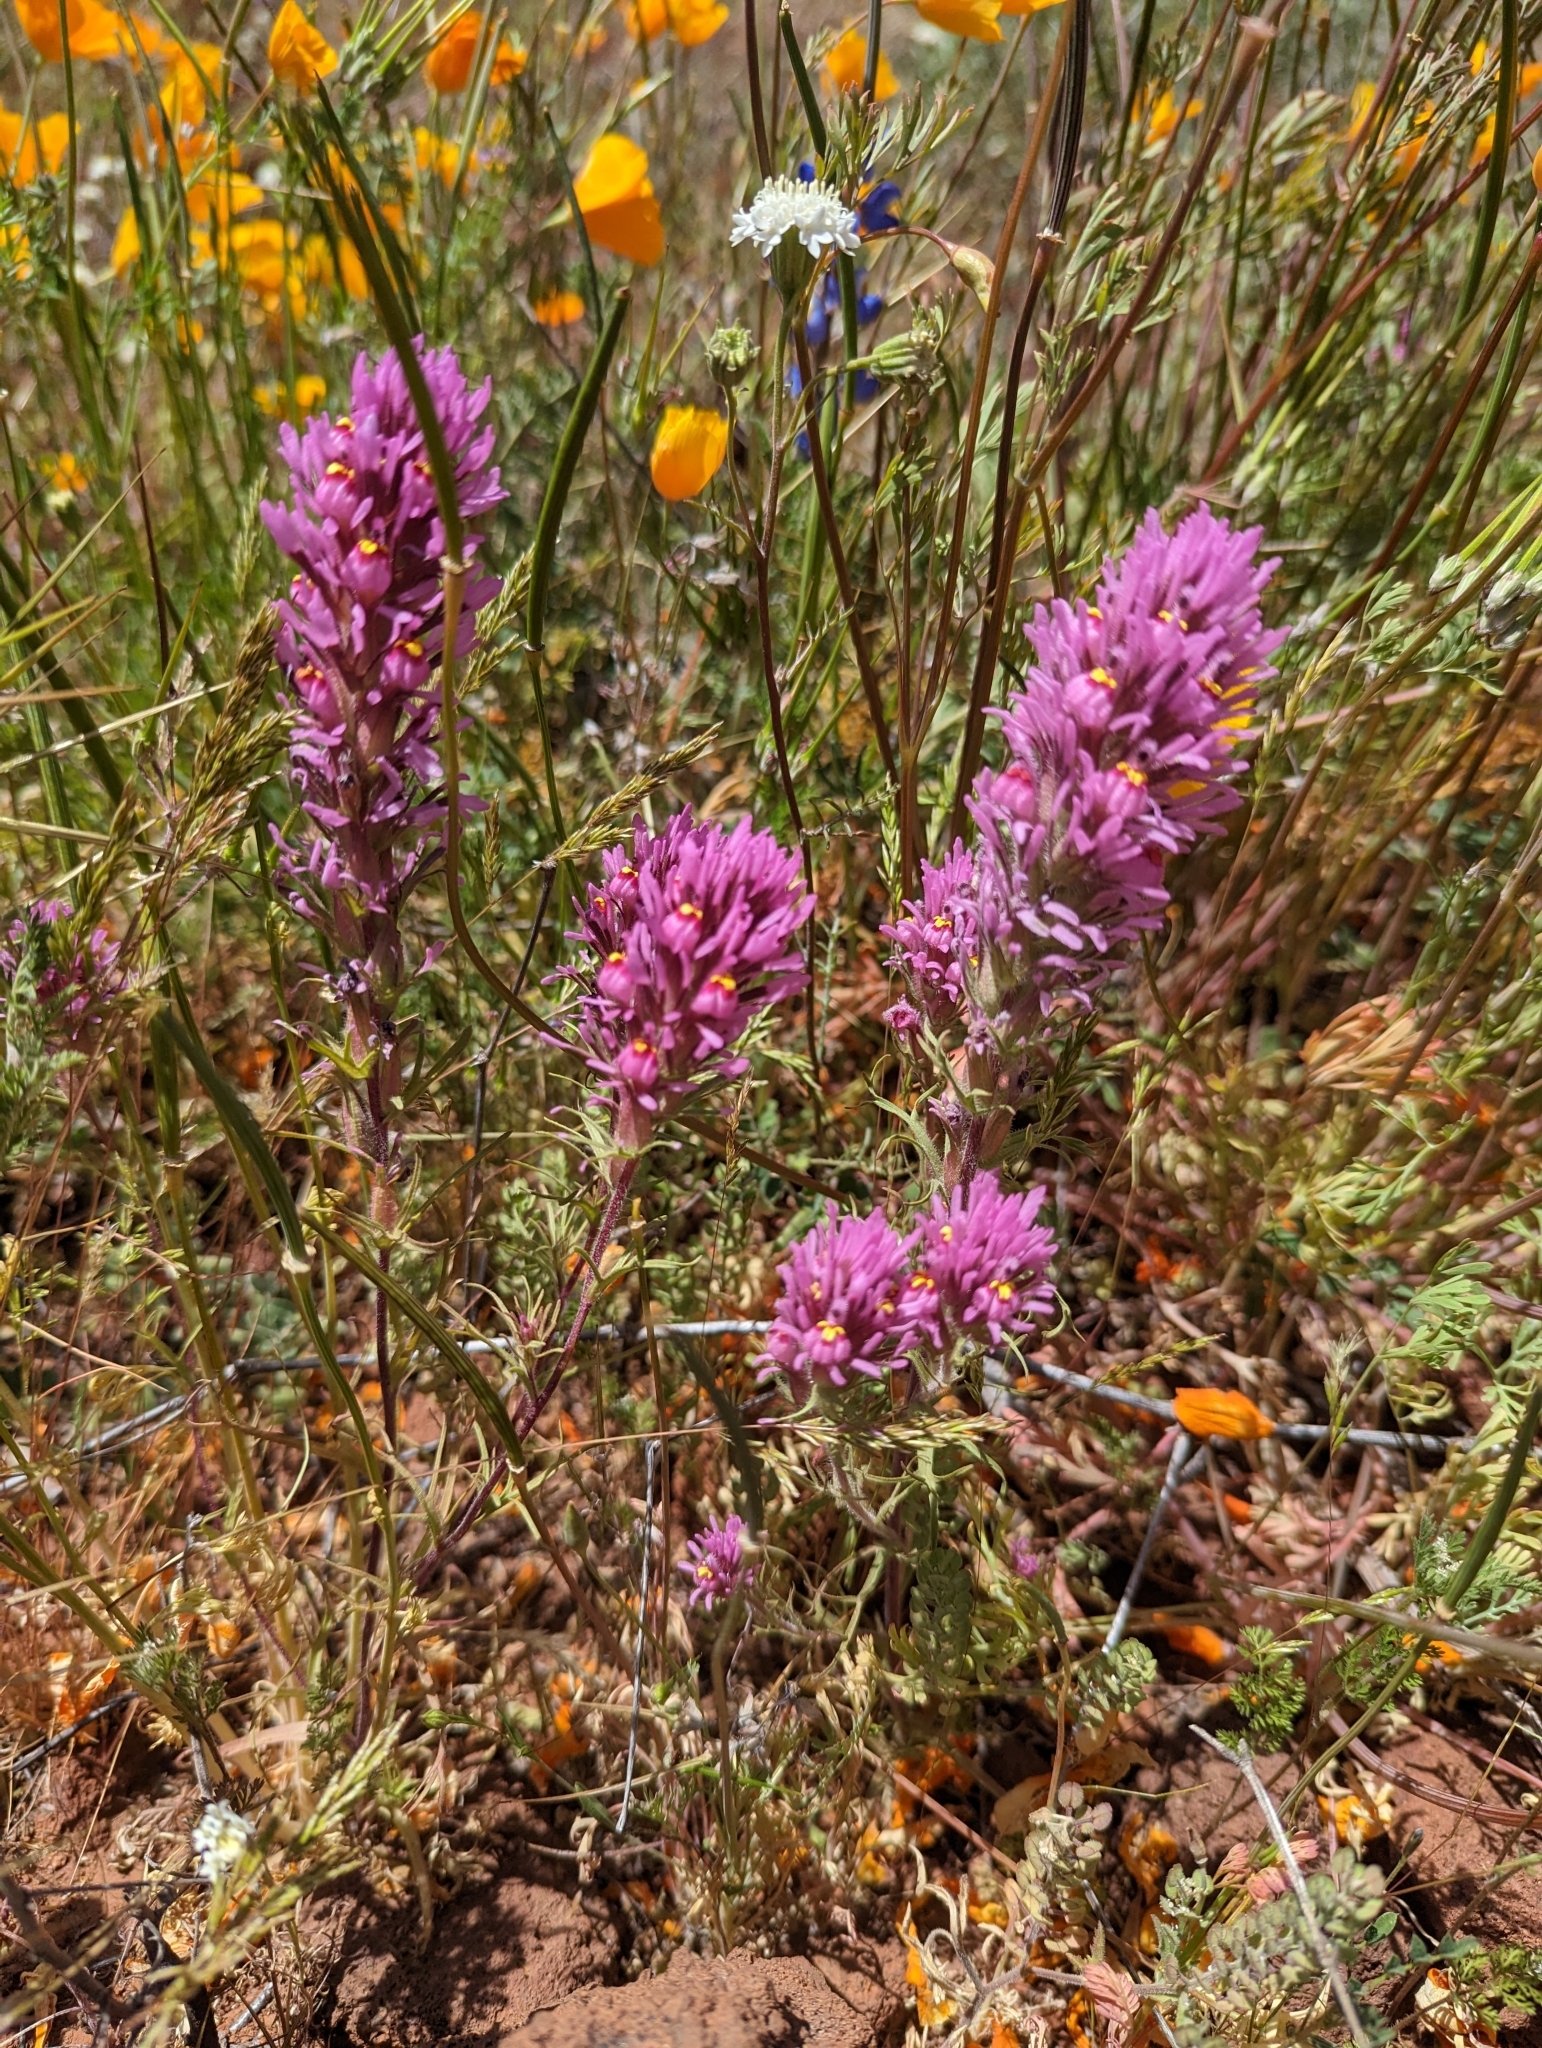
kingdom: Plantae
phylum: Tracheophyta
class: Magnoliopsida
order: Lamiales
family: Orobanchaceae
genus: Castilleja
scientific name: Castilleja exserta
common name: Purple owl-clover
